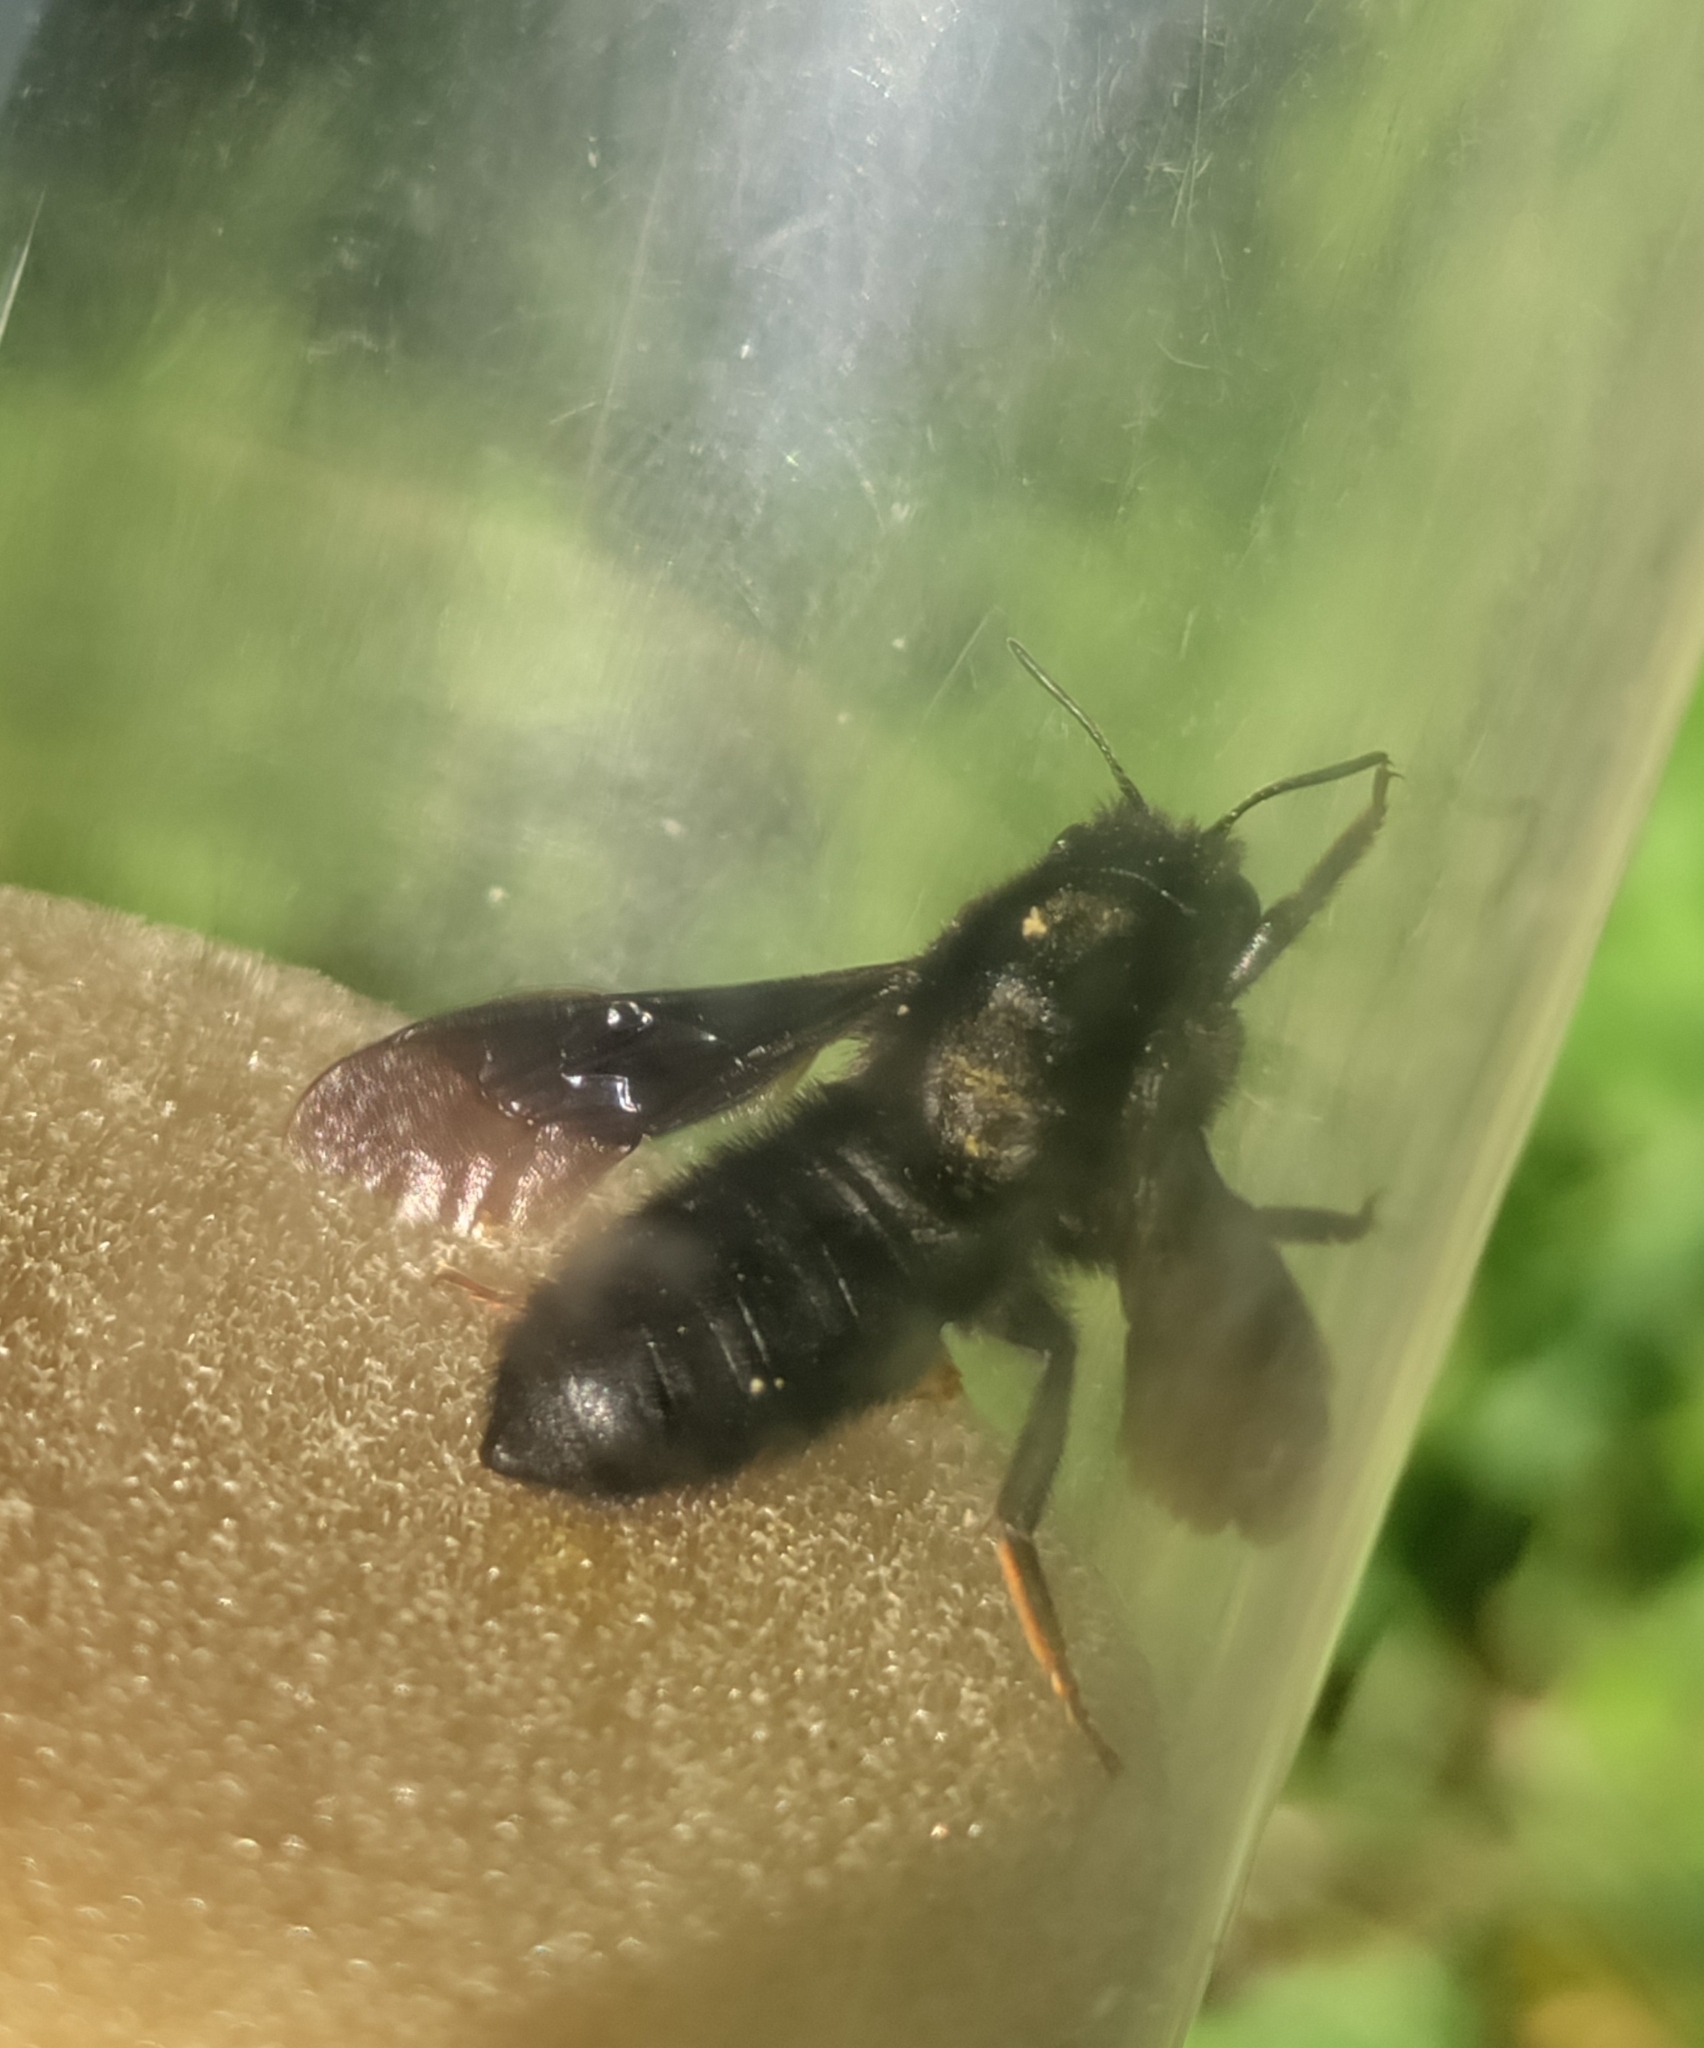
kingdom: Animalia
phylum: Arthropoda
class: Insecta
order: Hymenoptera
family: Megachilidae
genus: Megachile
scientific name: Megachile parietina
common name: Black mud bee
